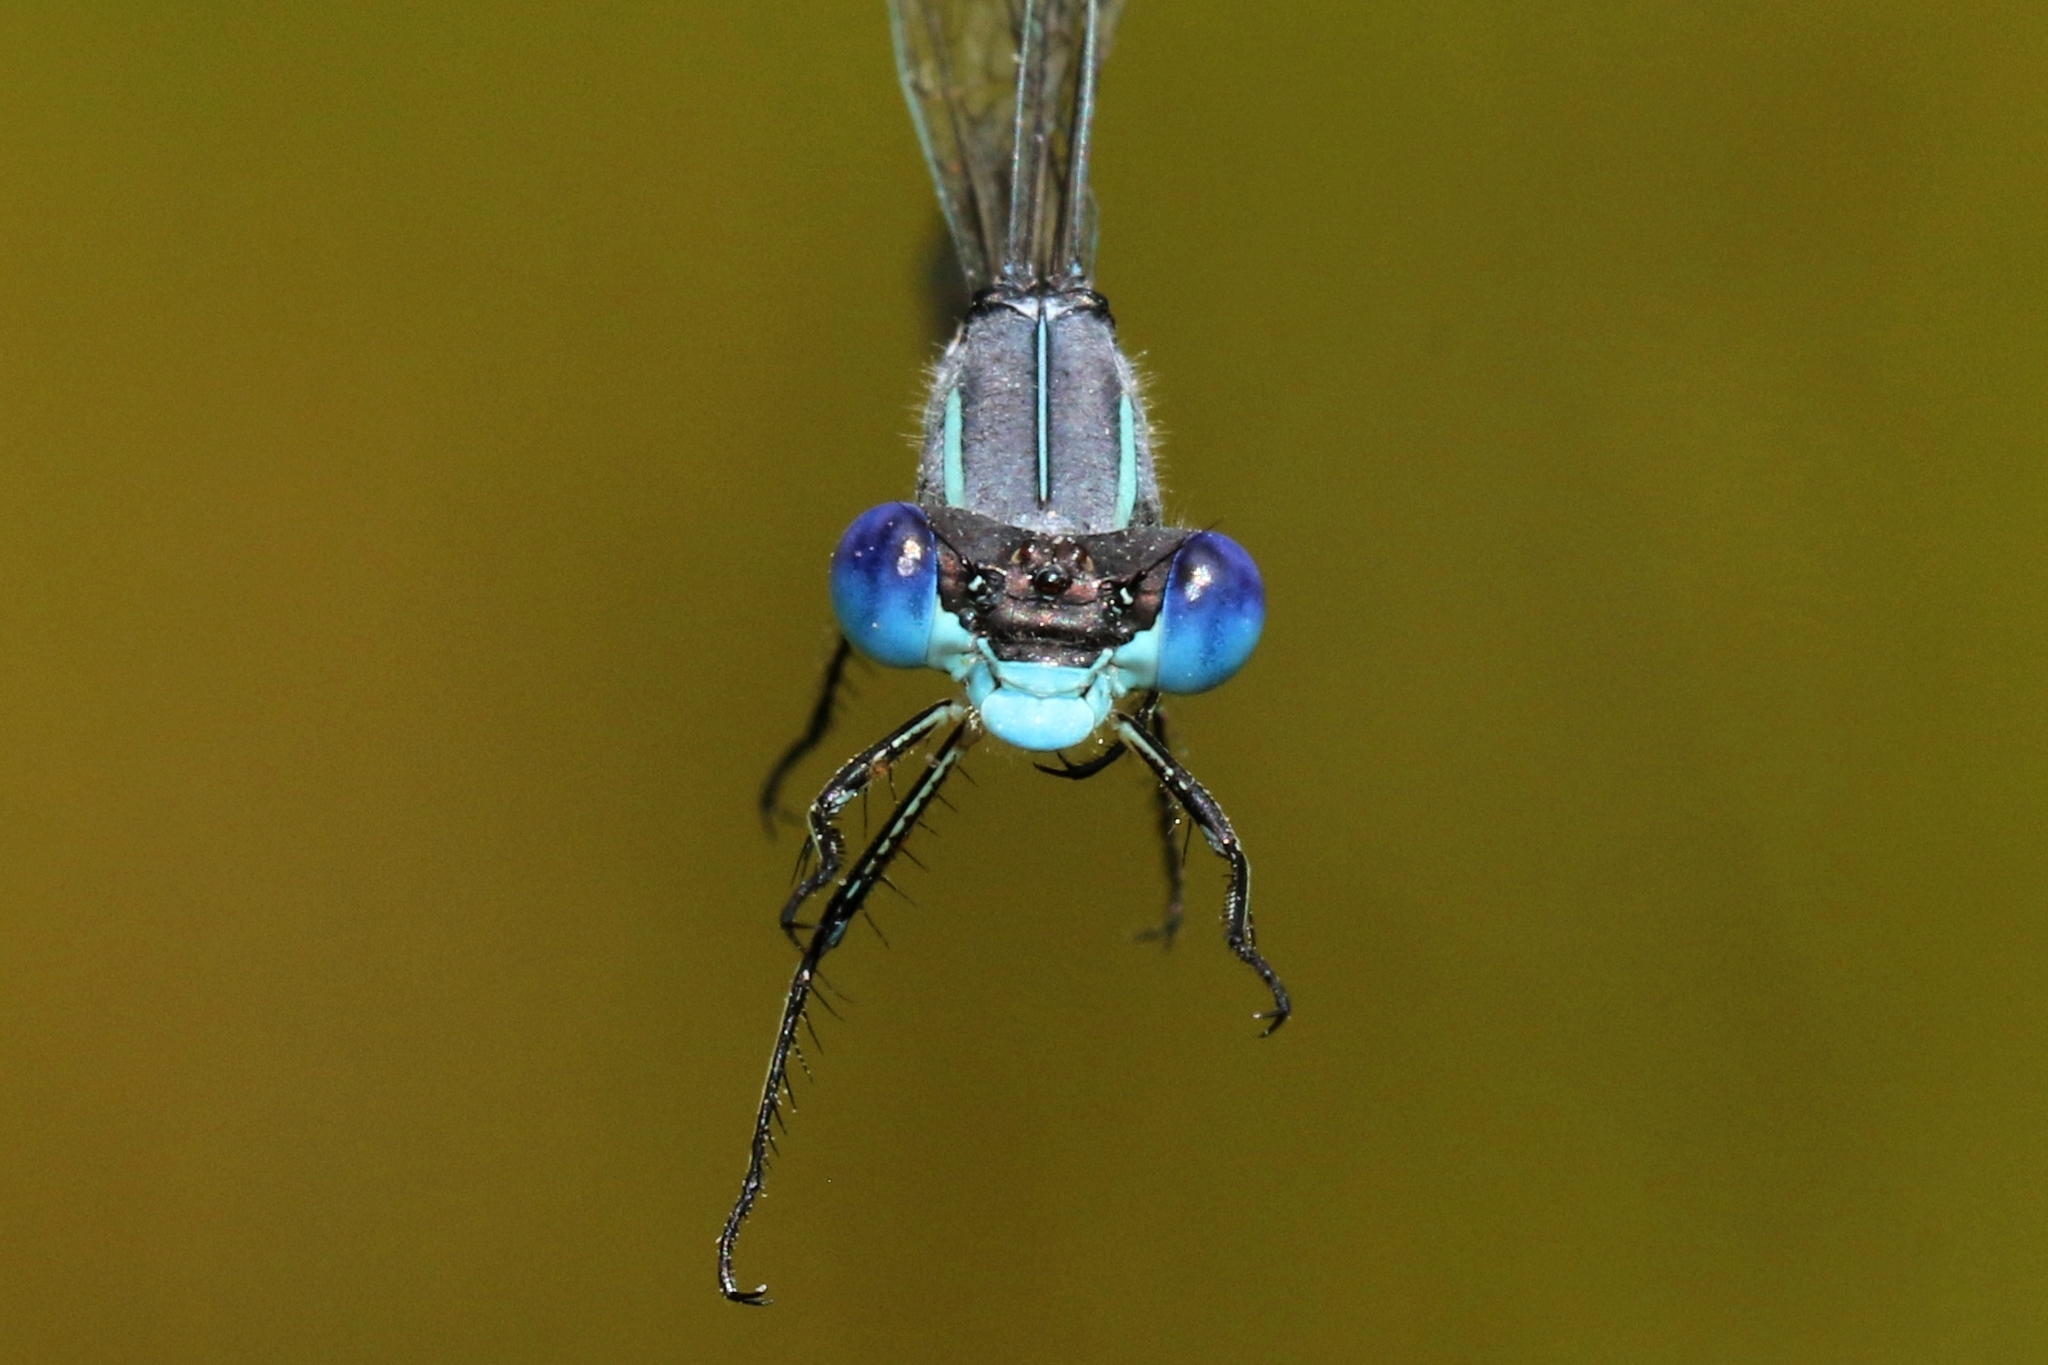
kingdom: Animalia
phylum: Arthropoda
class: Insecta
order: Odonata
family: Lestidae
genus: Lestes
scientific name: Lestes unguiculatus
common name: Lyre-tipped spreadwing
